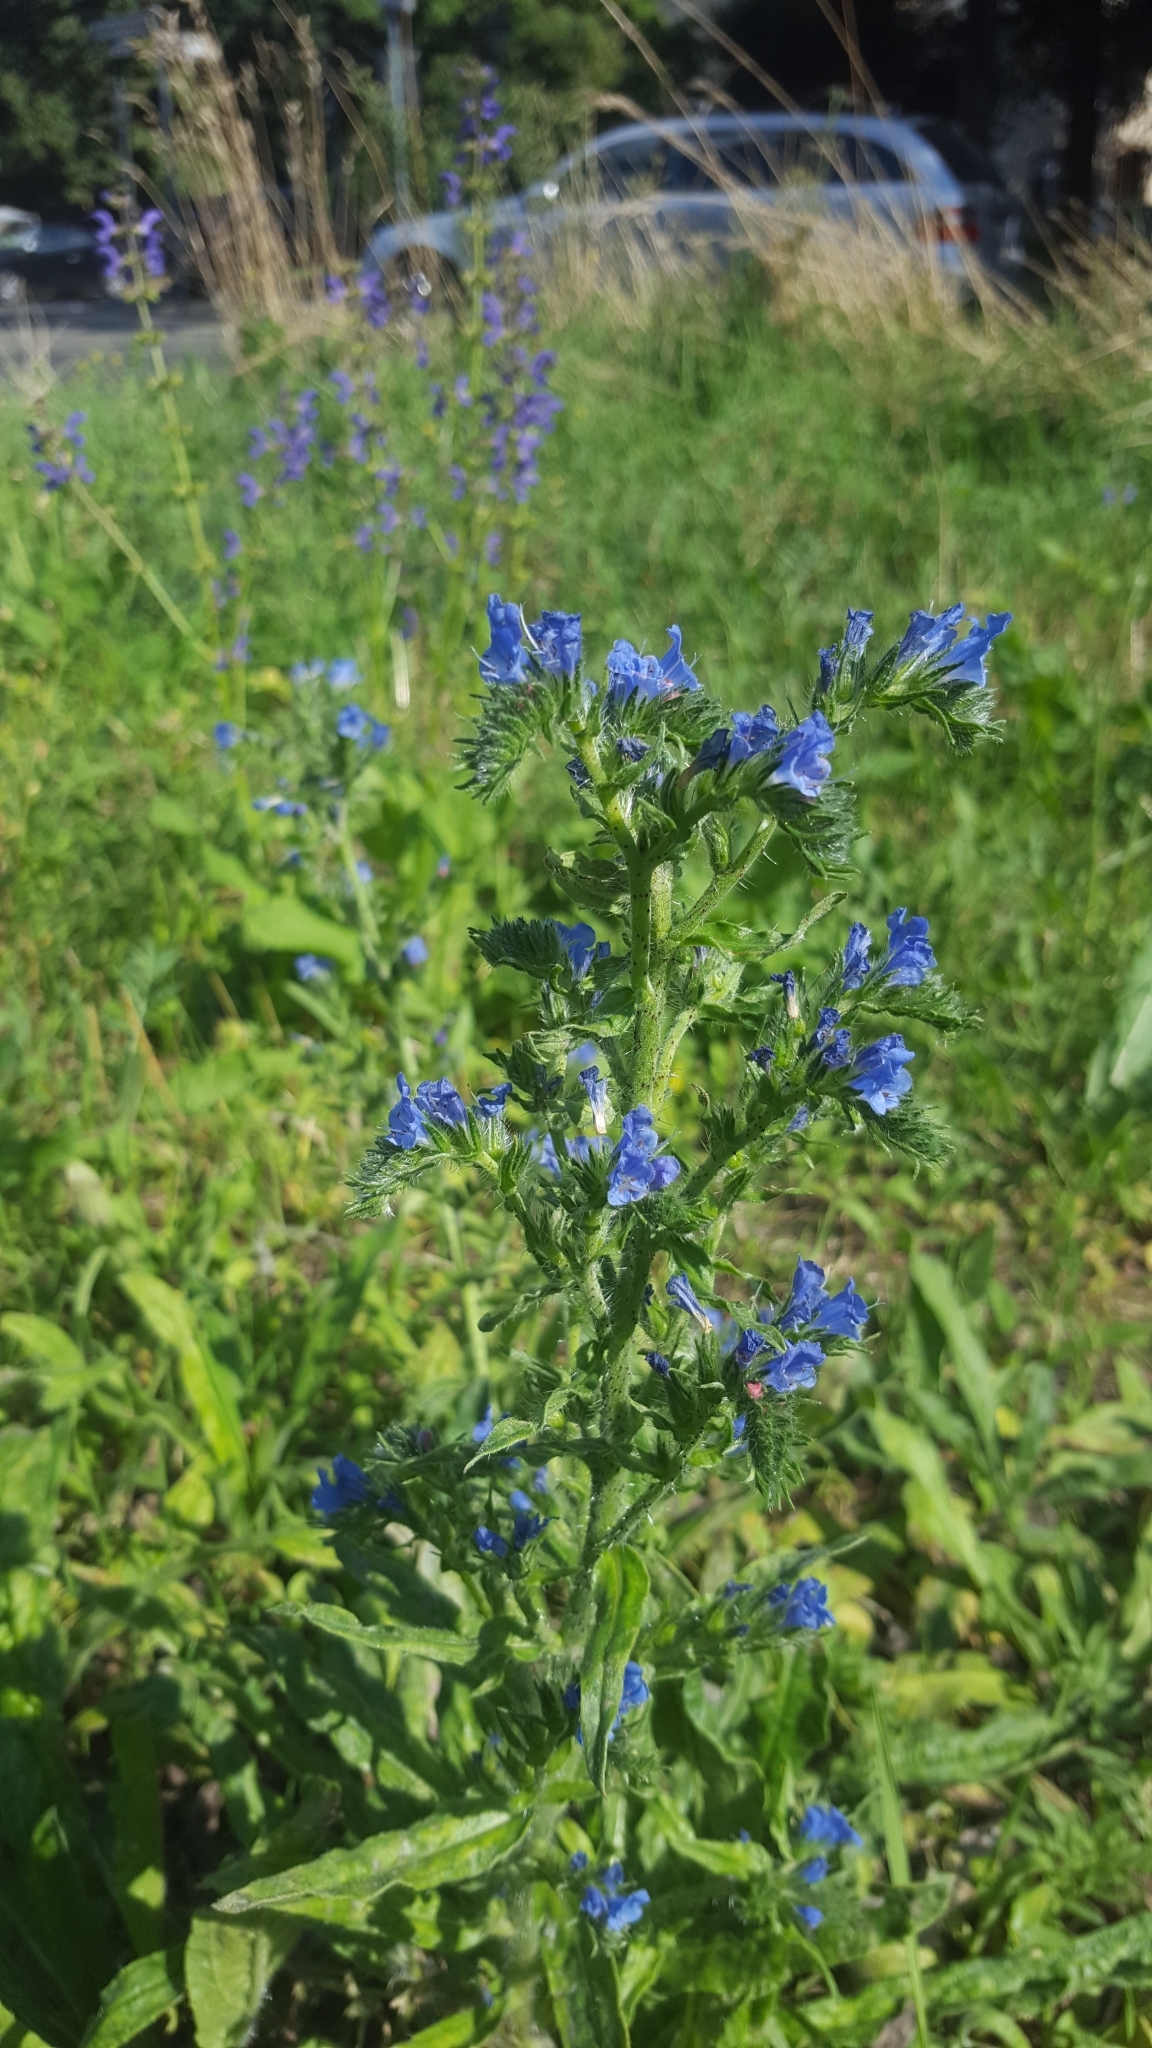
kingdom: Plantae
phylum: Tracheophyta
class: Magnoliopsida
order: Boraginales
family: Boraginaceae
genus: Echium
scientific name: Echium vulgare
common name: Common viper's bugloss
